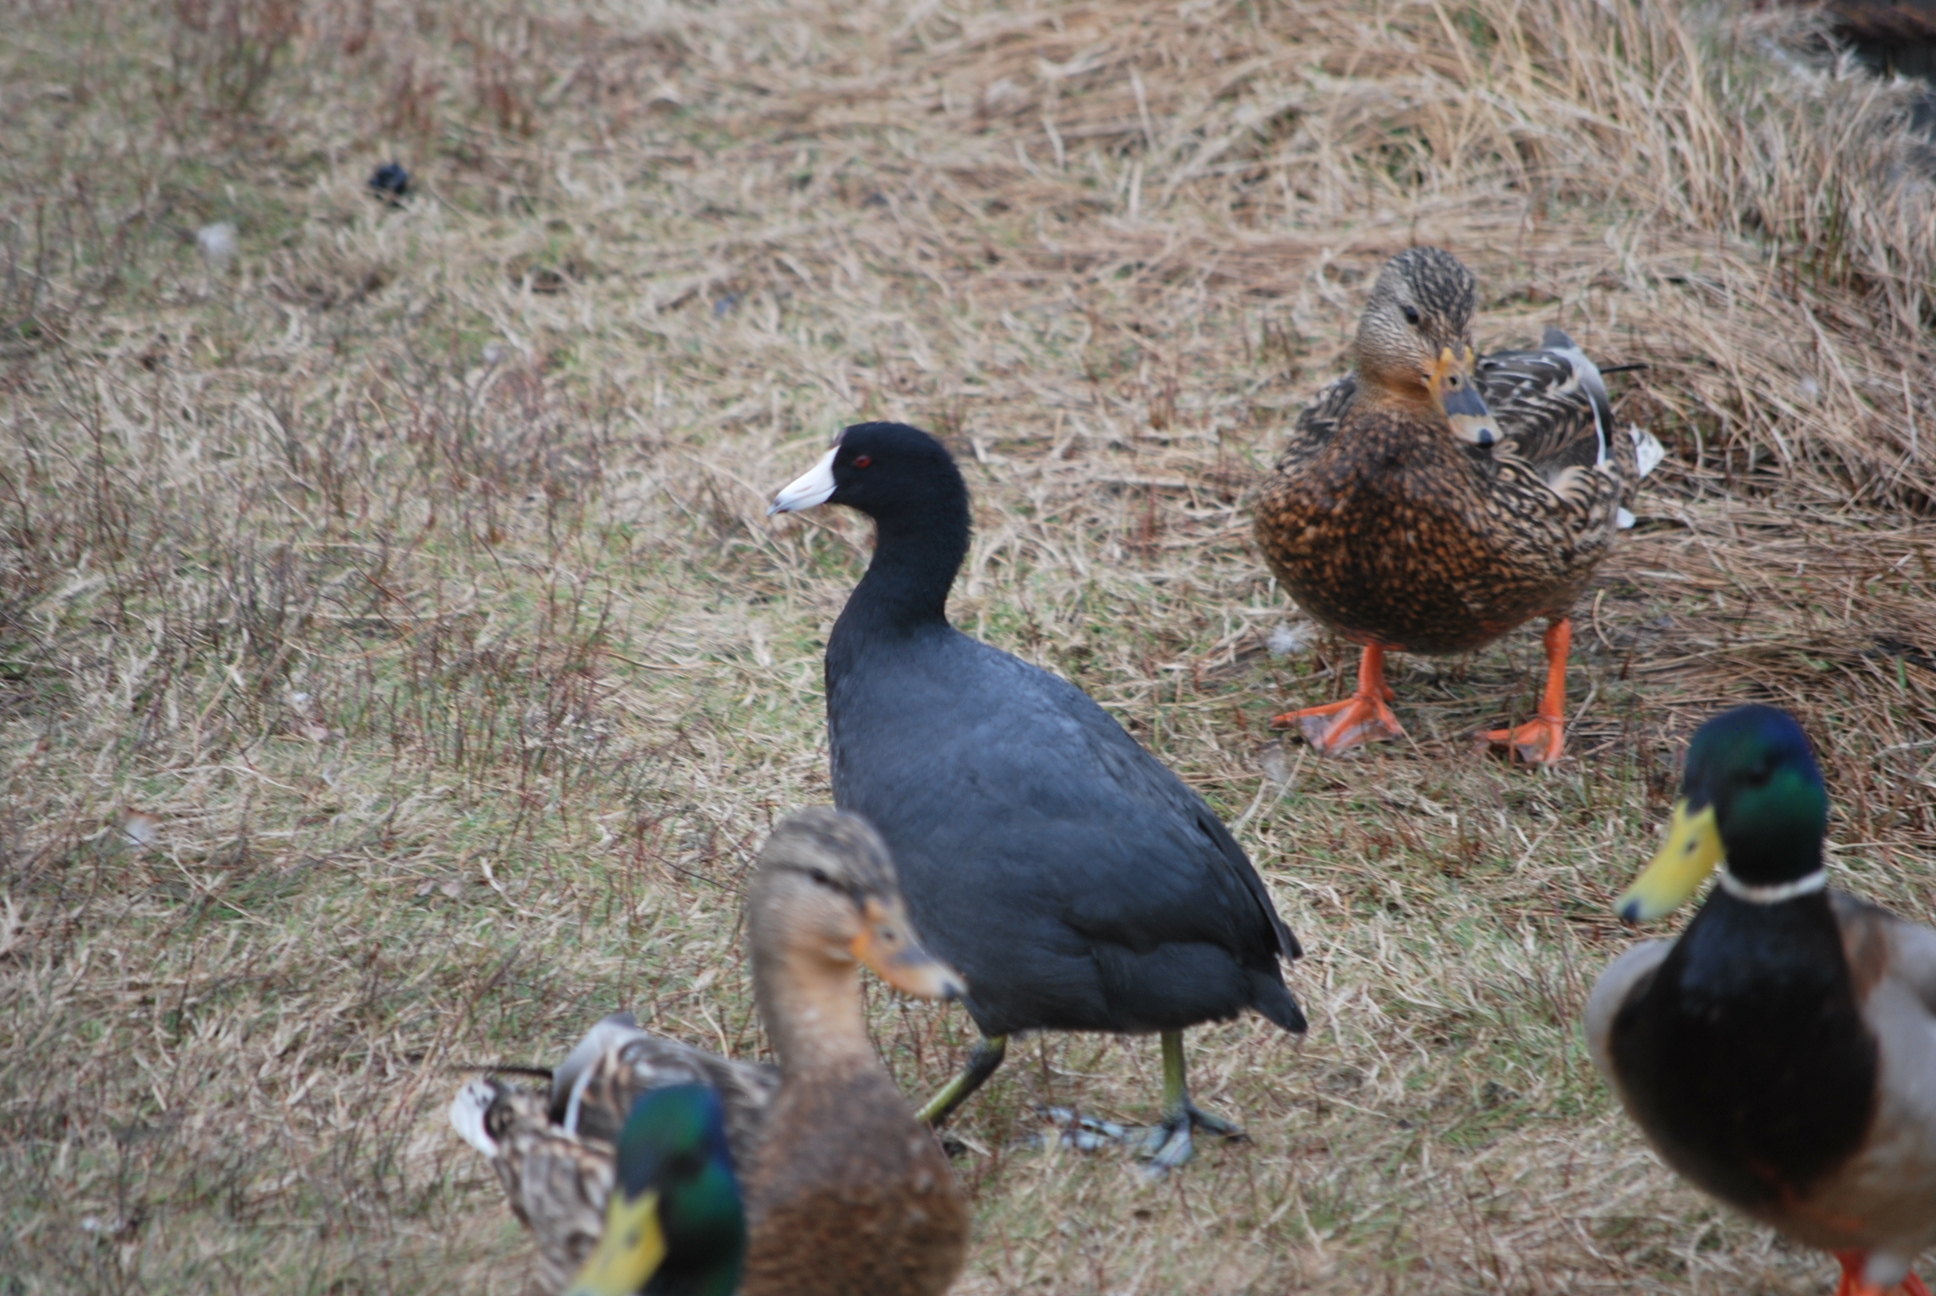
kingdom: Animalia
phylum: Chordata
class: Aves
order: Gruiformes
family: Rallidae
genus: Fulica
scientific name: Fulica americana
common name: American coot
